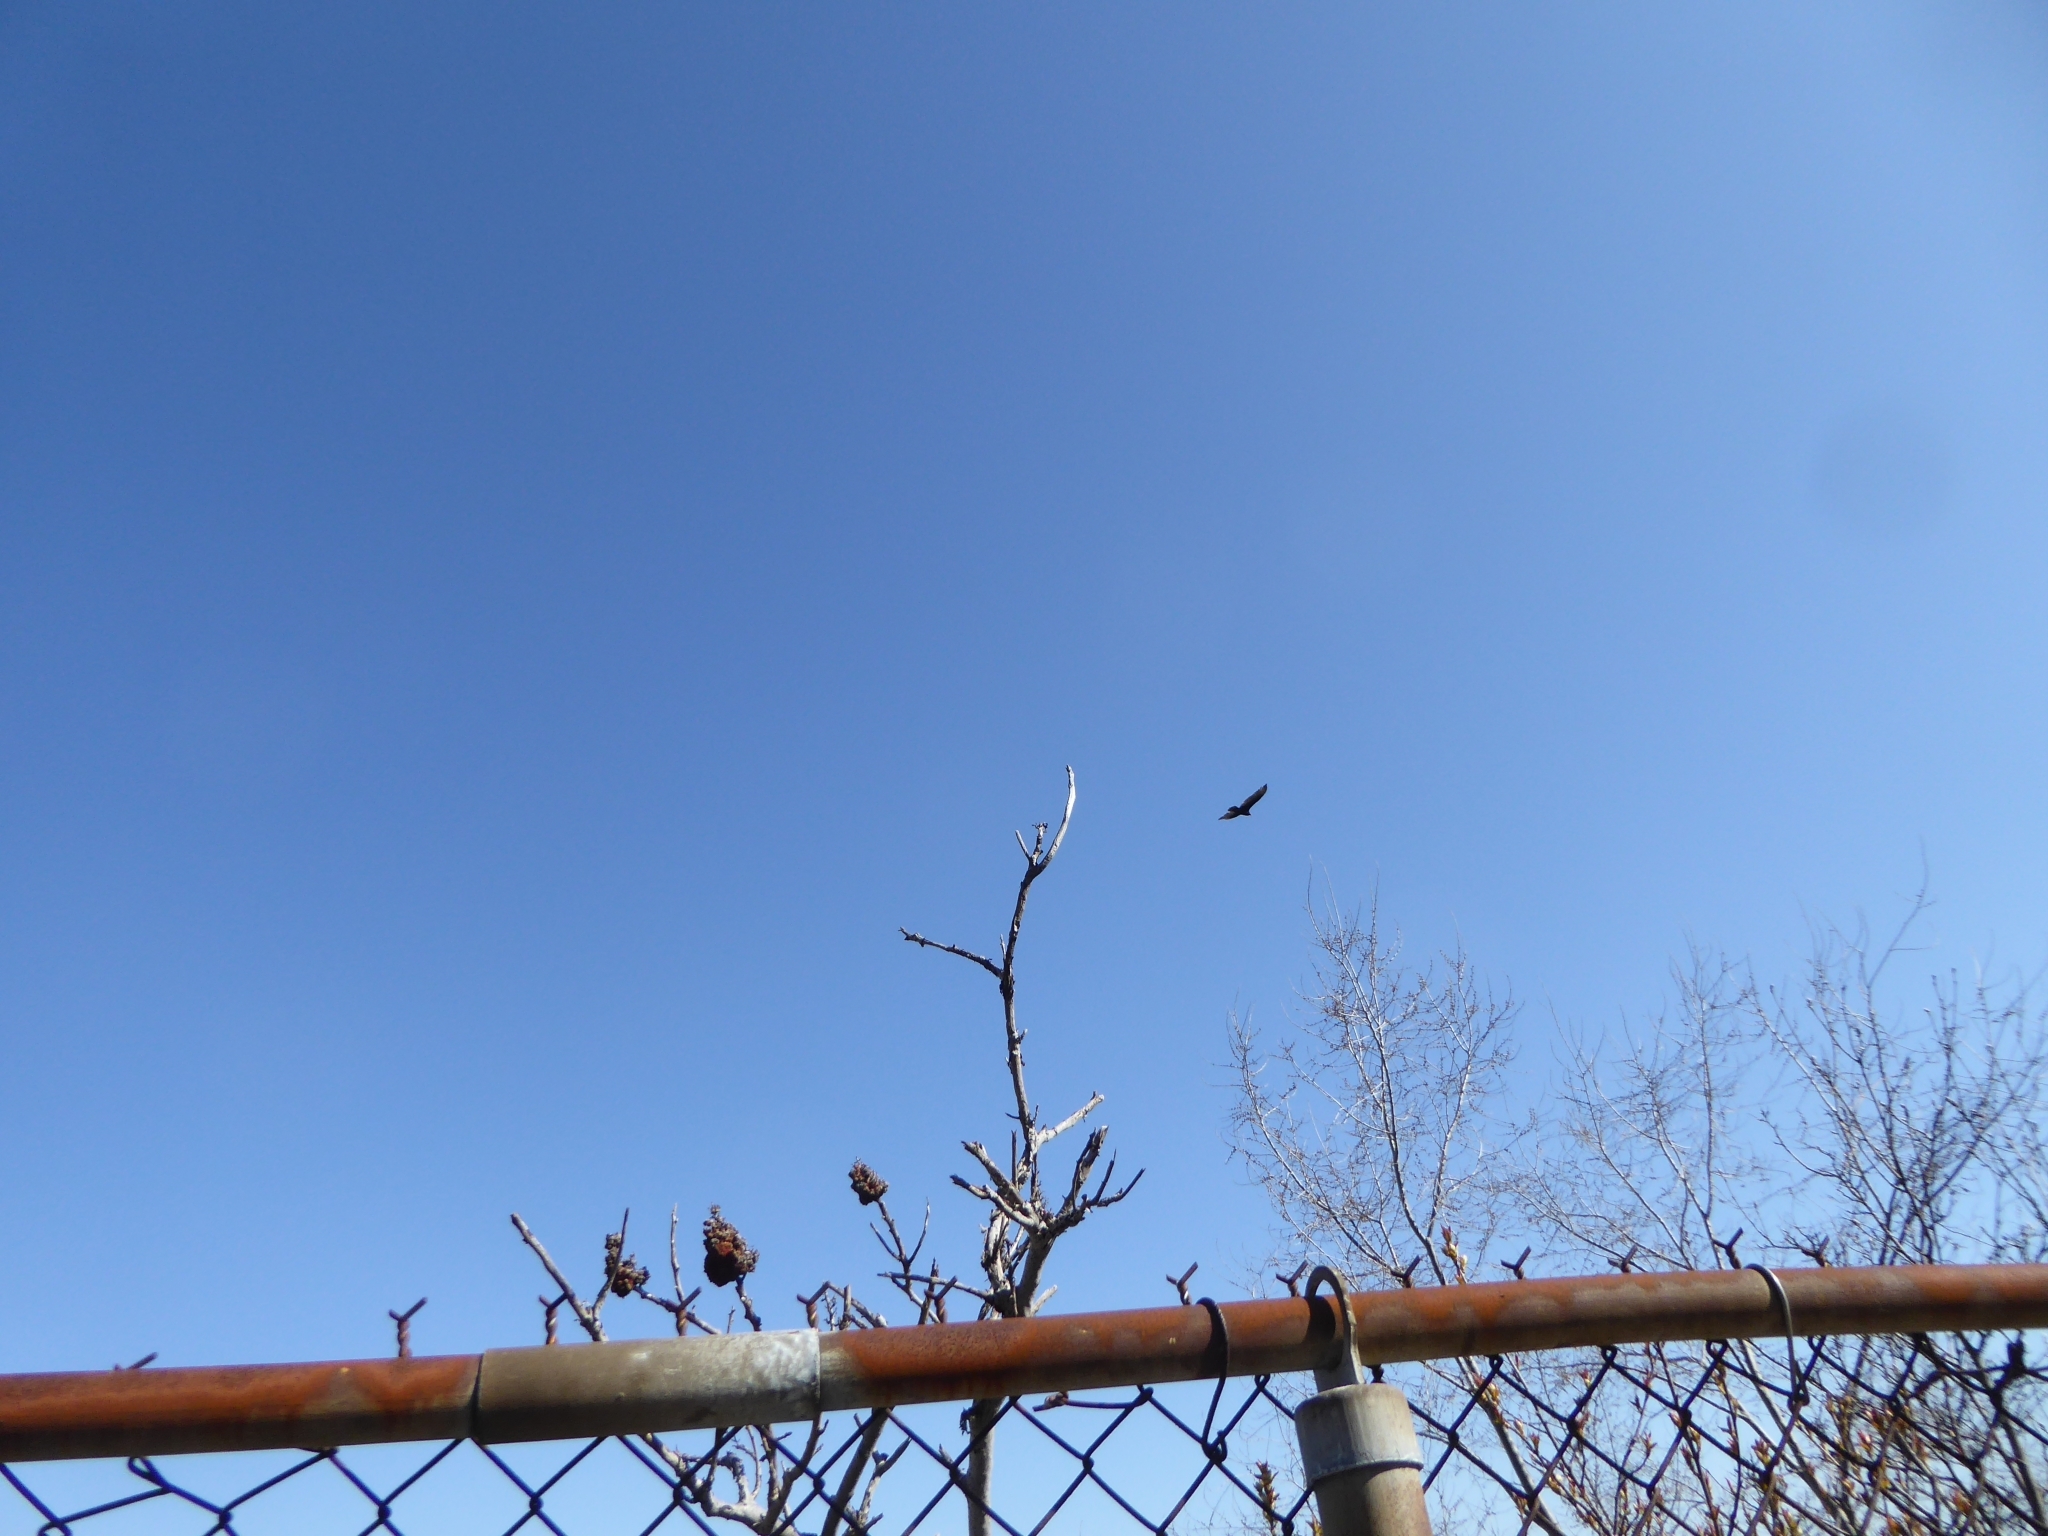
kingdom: Animalia
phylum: Chordata
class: Aves
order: Accipitriformes
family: Cathartidae
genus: Cathartes
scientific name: Cathartes aura
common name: Turkey vulture
